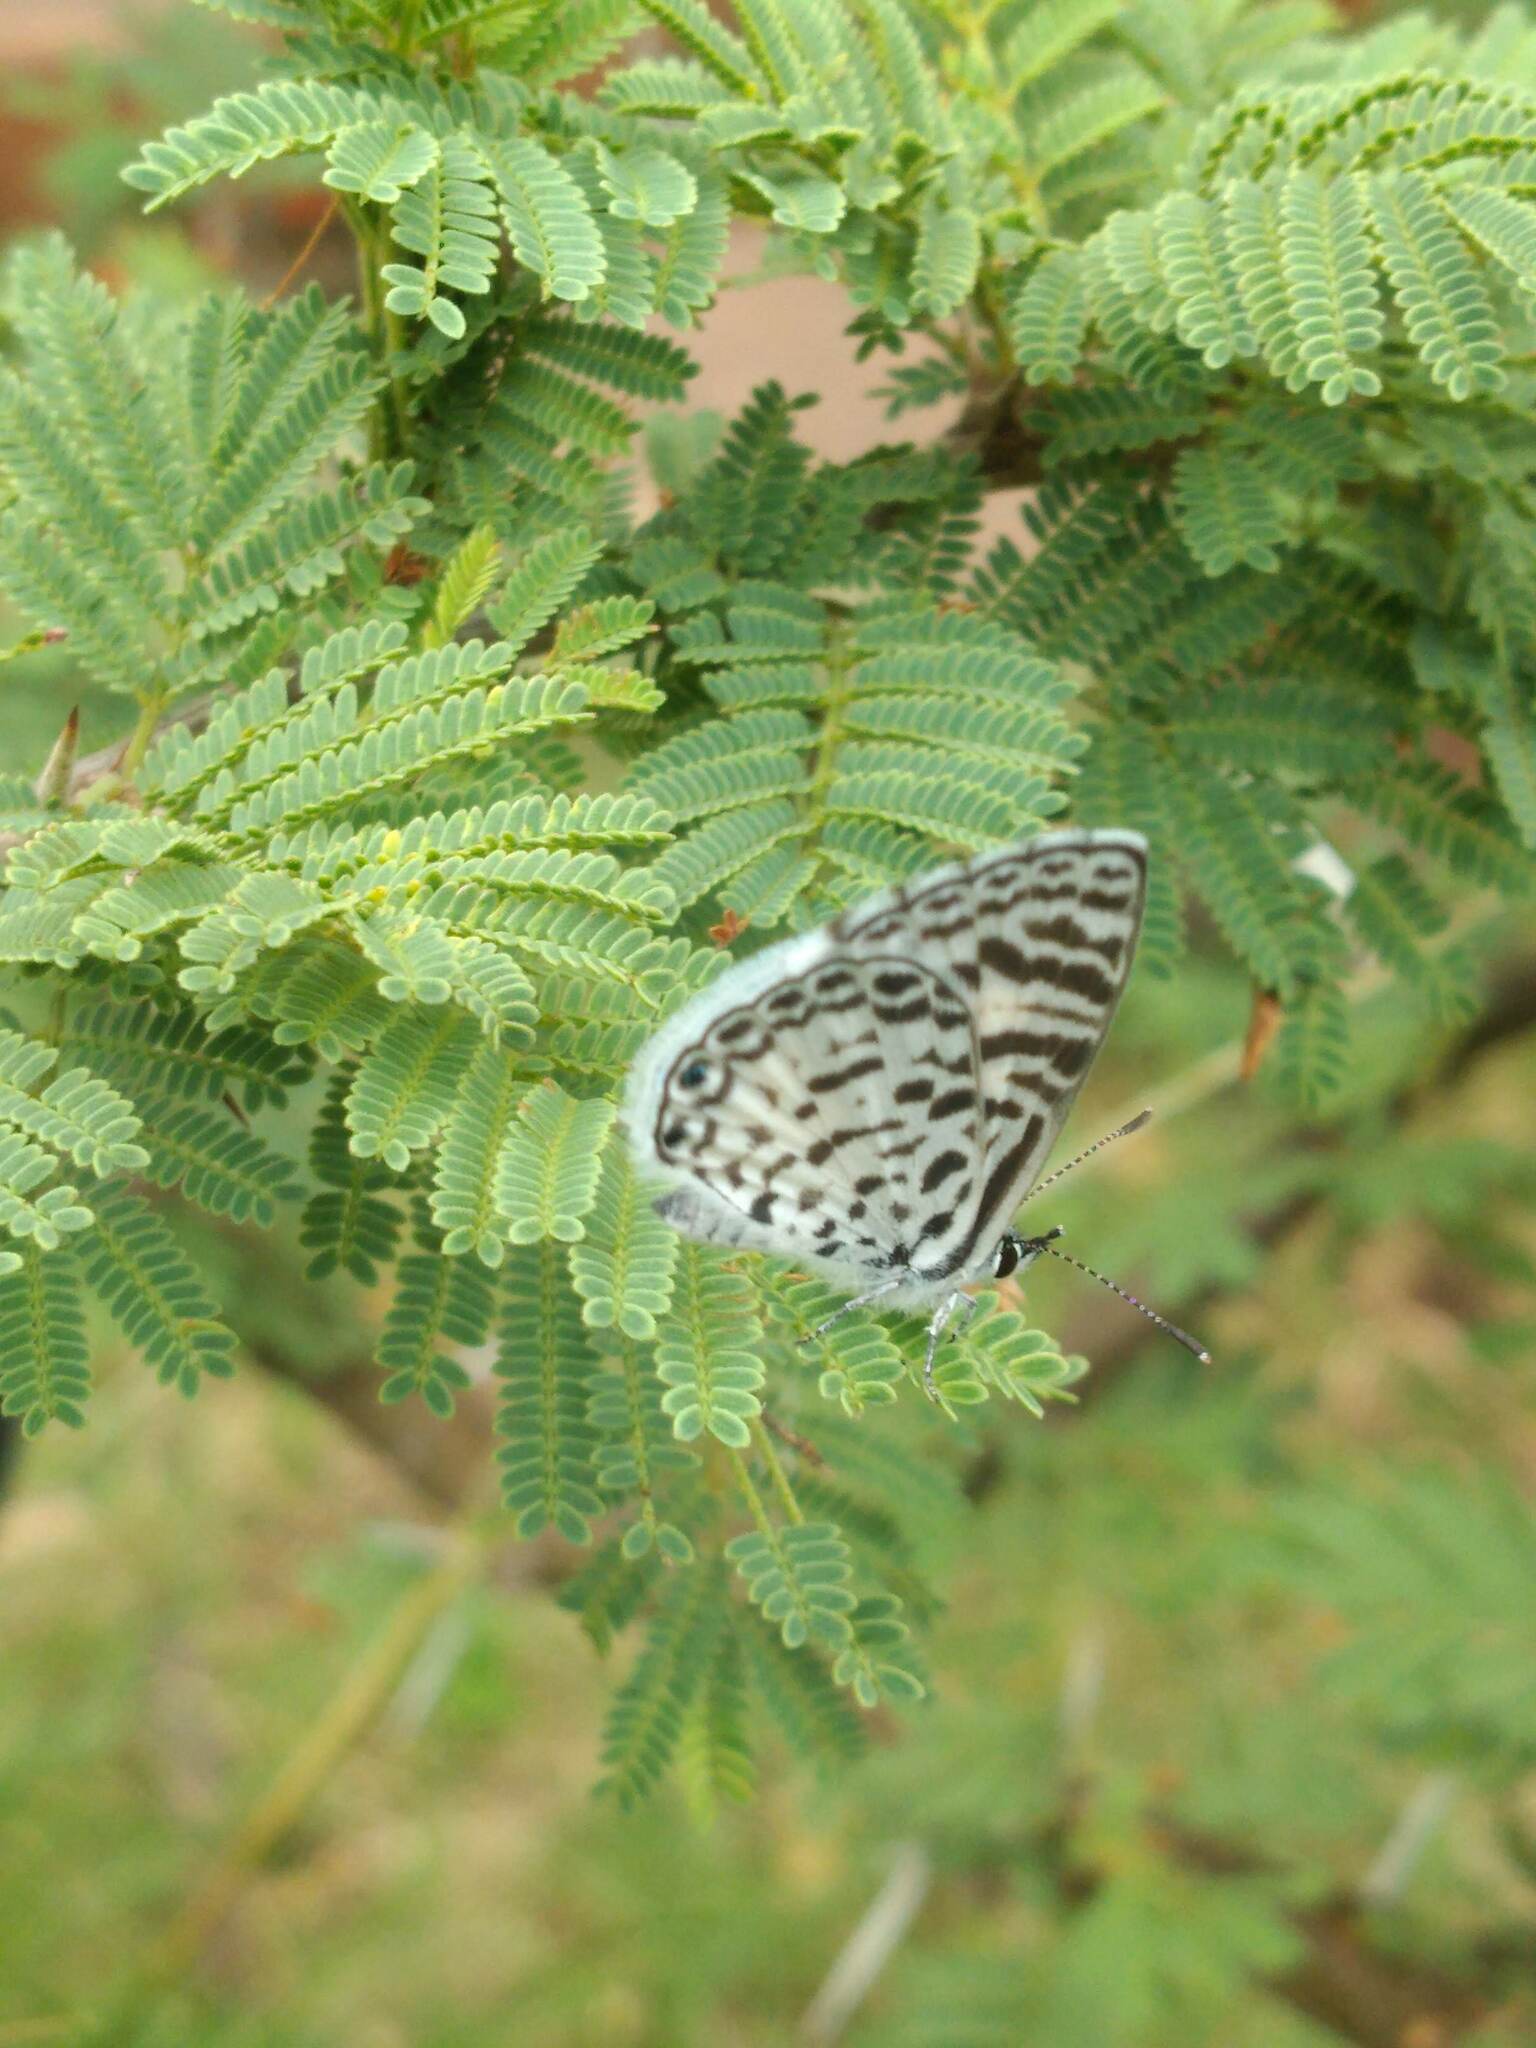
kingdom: Animalia
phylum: Arthropoda
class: Insecta
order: Lepidoptera
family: Lycaenidae
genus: Leptotes
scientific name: Leptotes cassius
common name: Cassius blue
